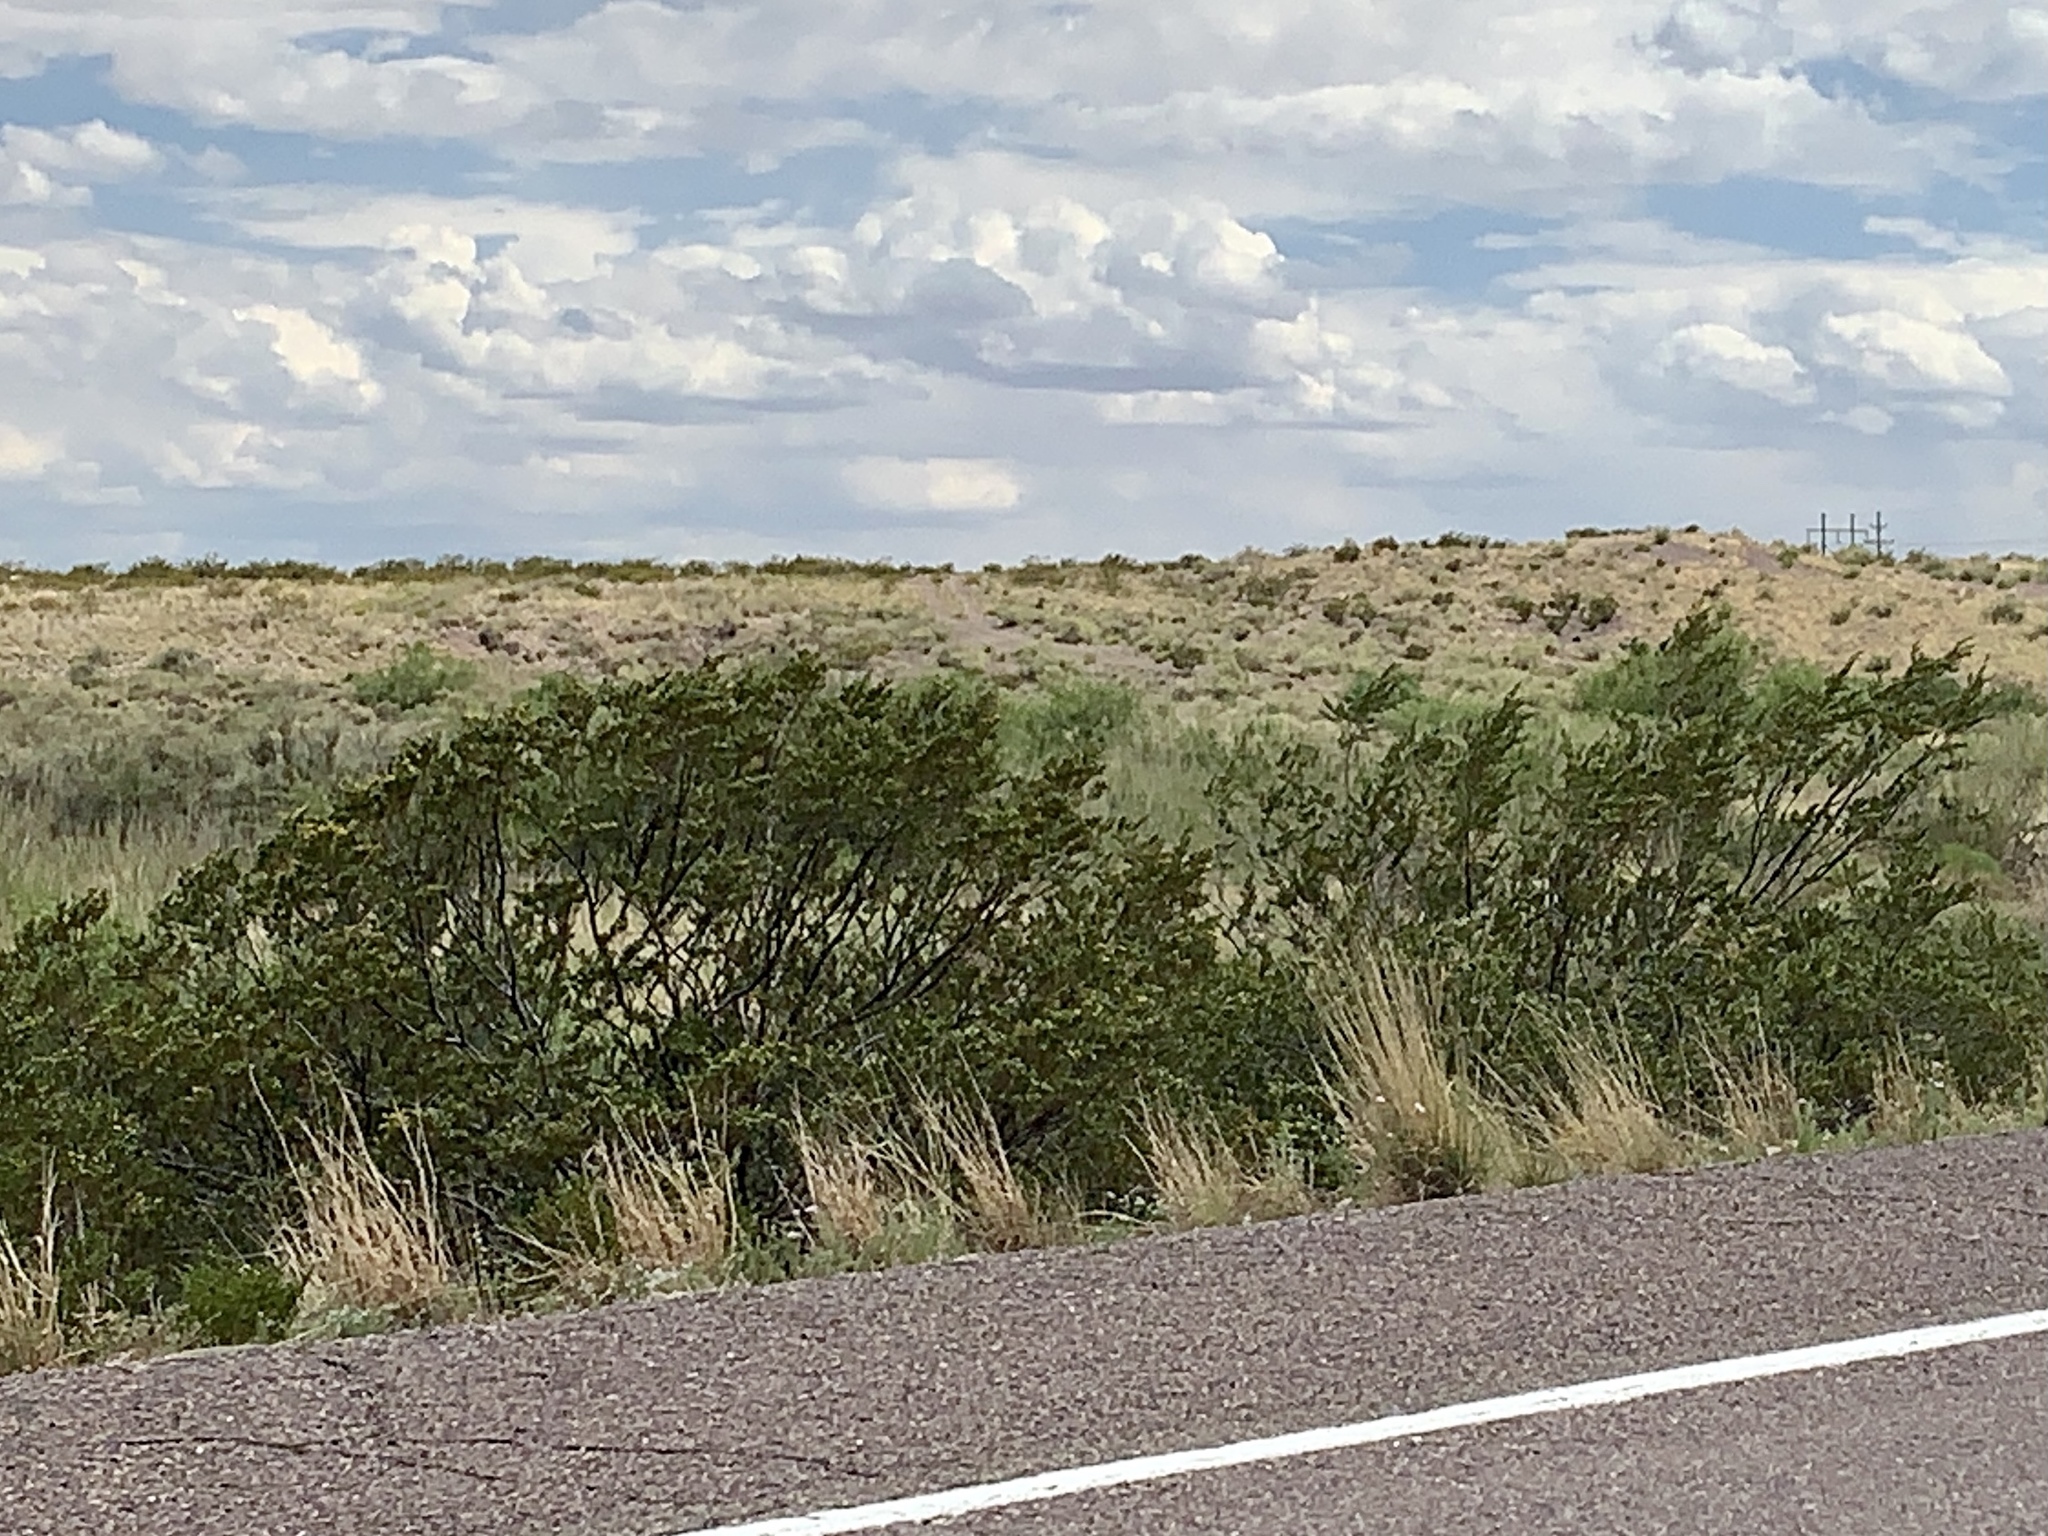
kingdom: Plantae
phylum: Tracheophyta
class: Magnoliopsida
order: Zygophyllales
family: Zygophyllaceae
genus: Larrea
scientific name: Larrea tridentata
